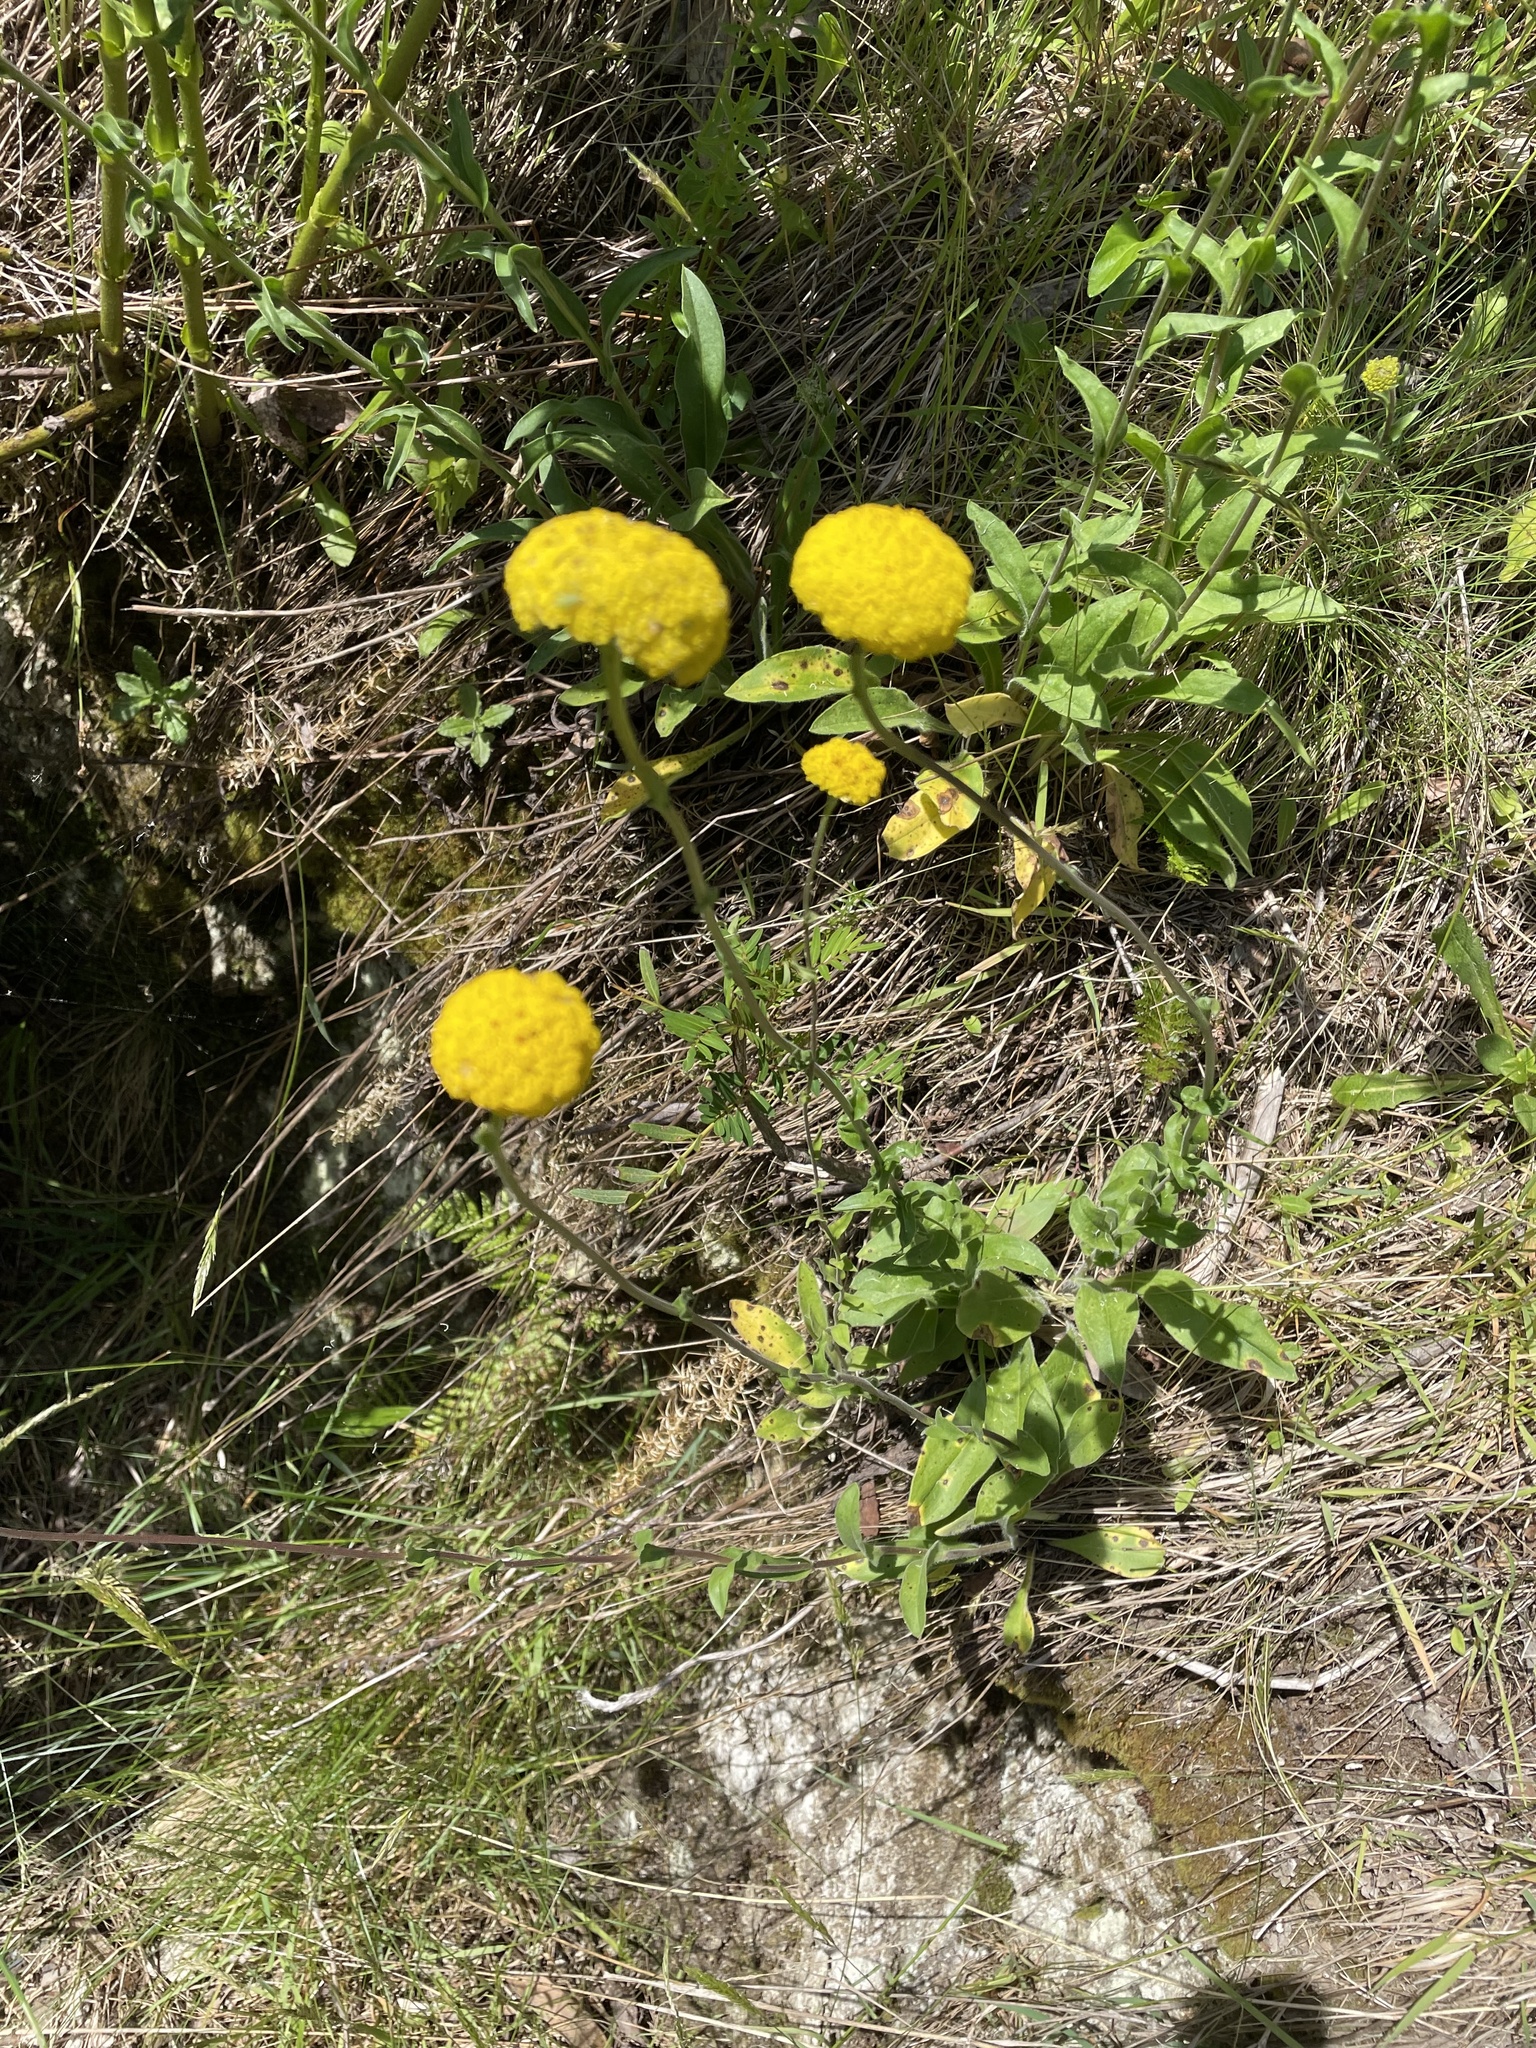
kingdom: Plantae
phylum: Tracheophyta
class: Magnoliopsida
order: Asterales
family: Asteraceae
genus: Craspedia
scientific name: Craspedia variabilis
